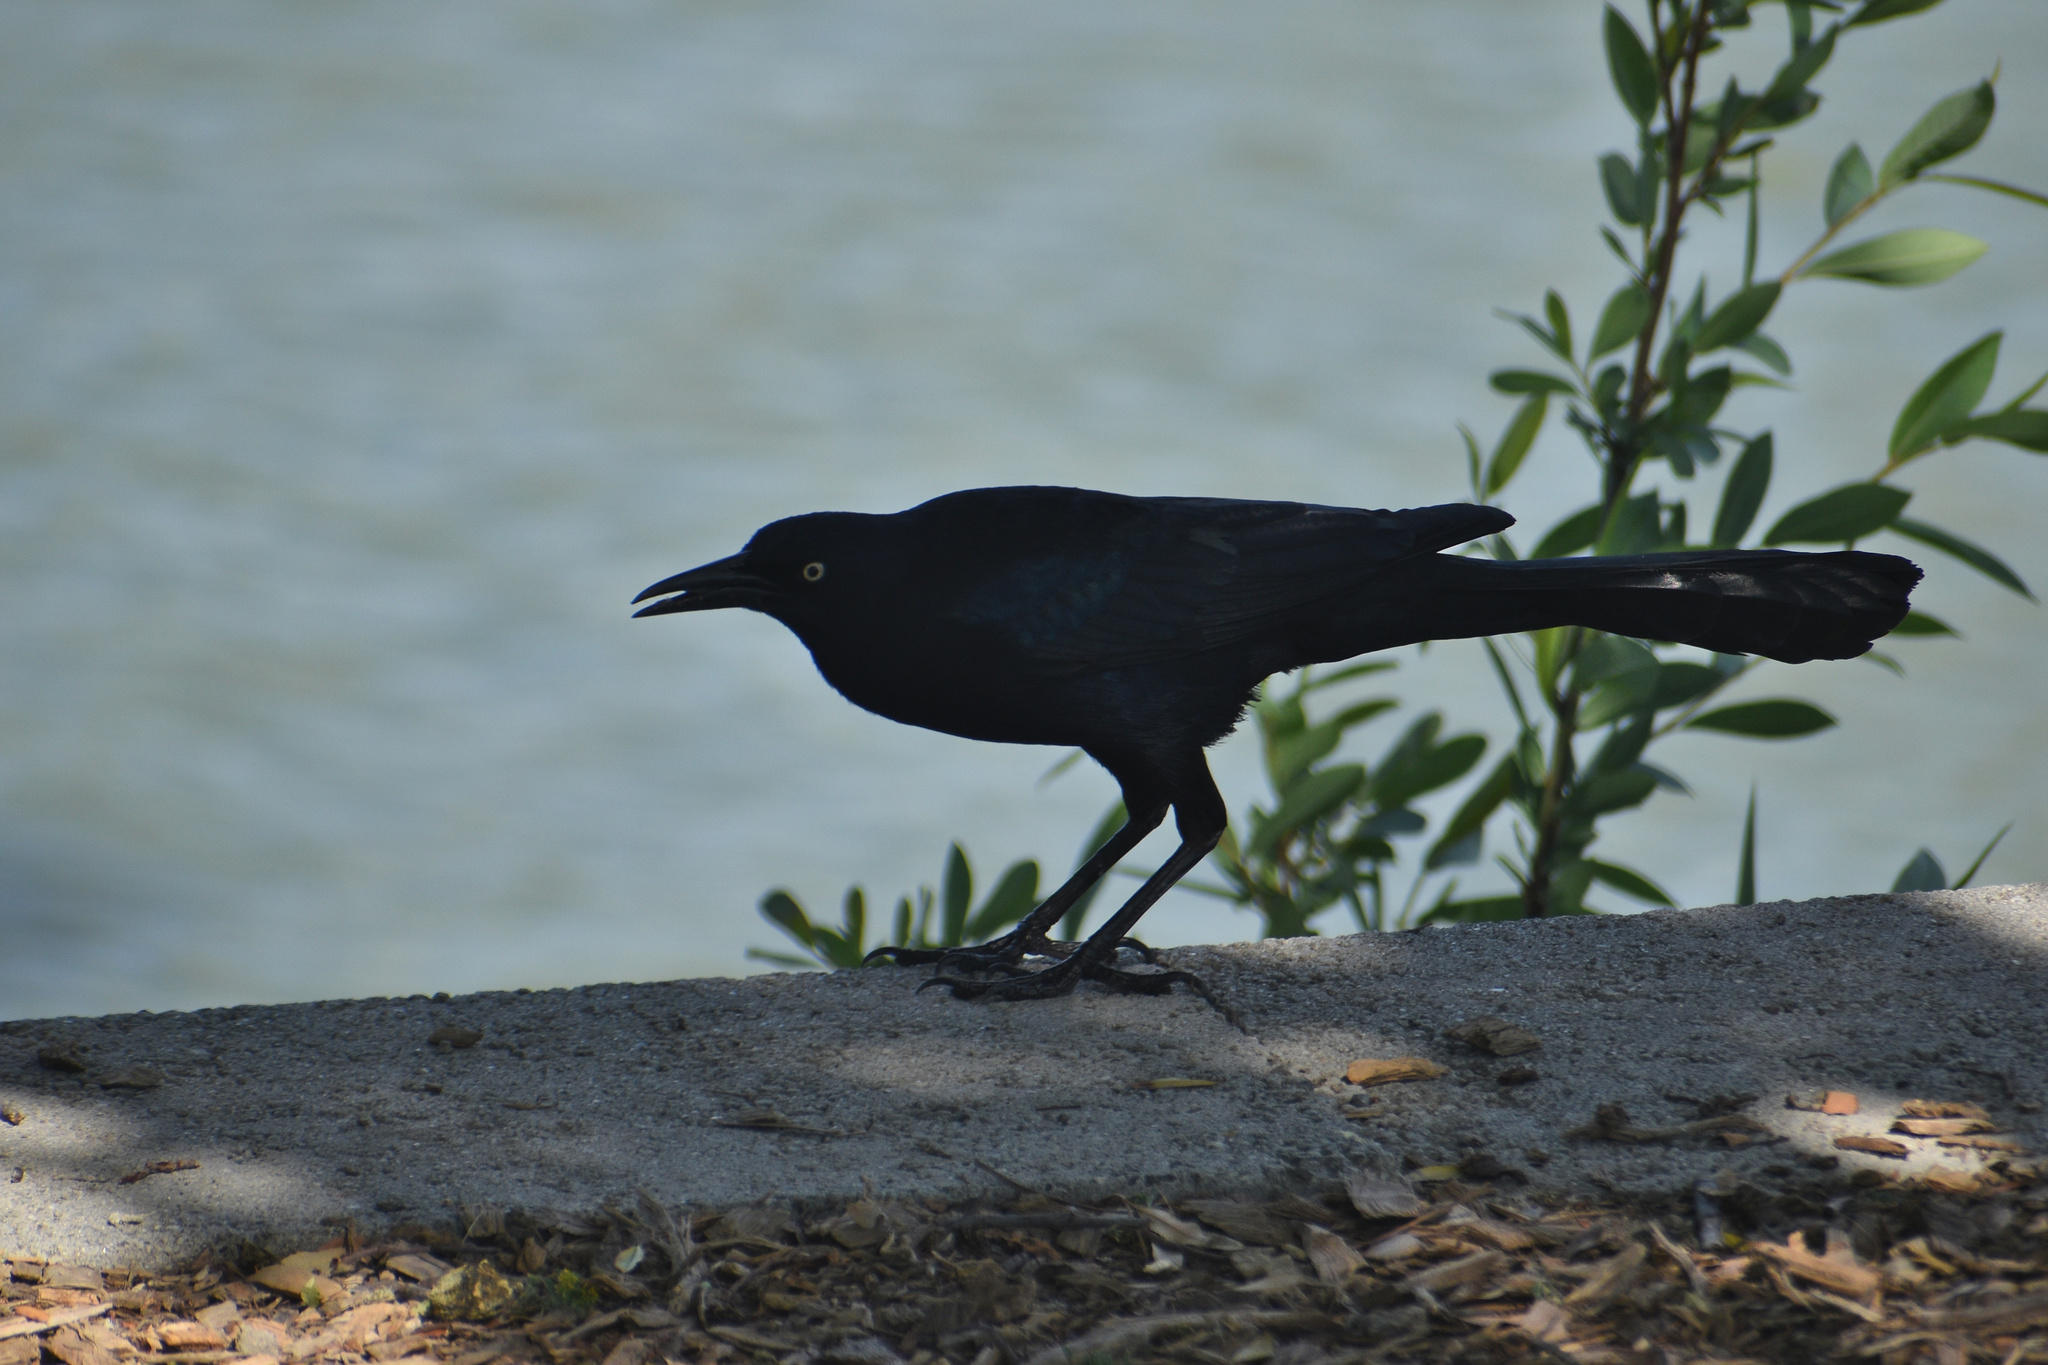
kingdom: Animalia
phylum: Chordata
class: Aves
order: Passeriformes
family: Icteridae
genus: Quiscalus
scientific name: Quiscalus mexicanus
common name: Great-tailed grackle
